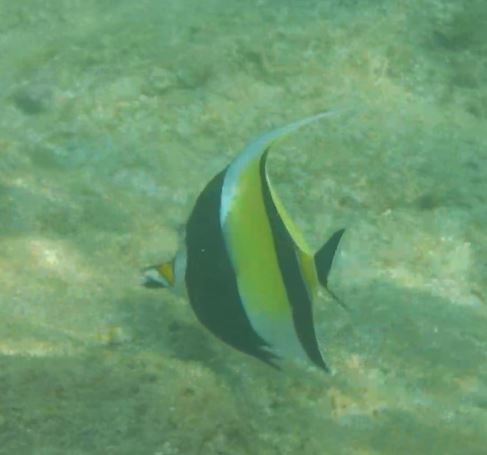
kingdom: Animalia
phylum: Chordata
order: Perciformes
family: Zanclidae
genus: Zanclus
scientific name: Zanclus cornutus
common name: Moorish idol
